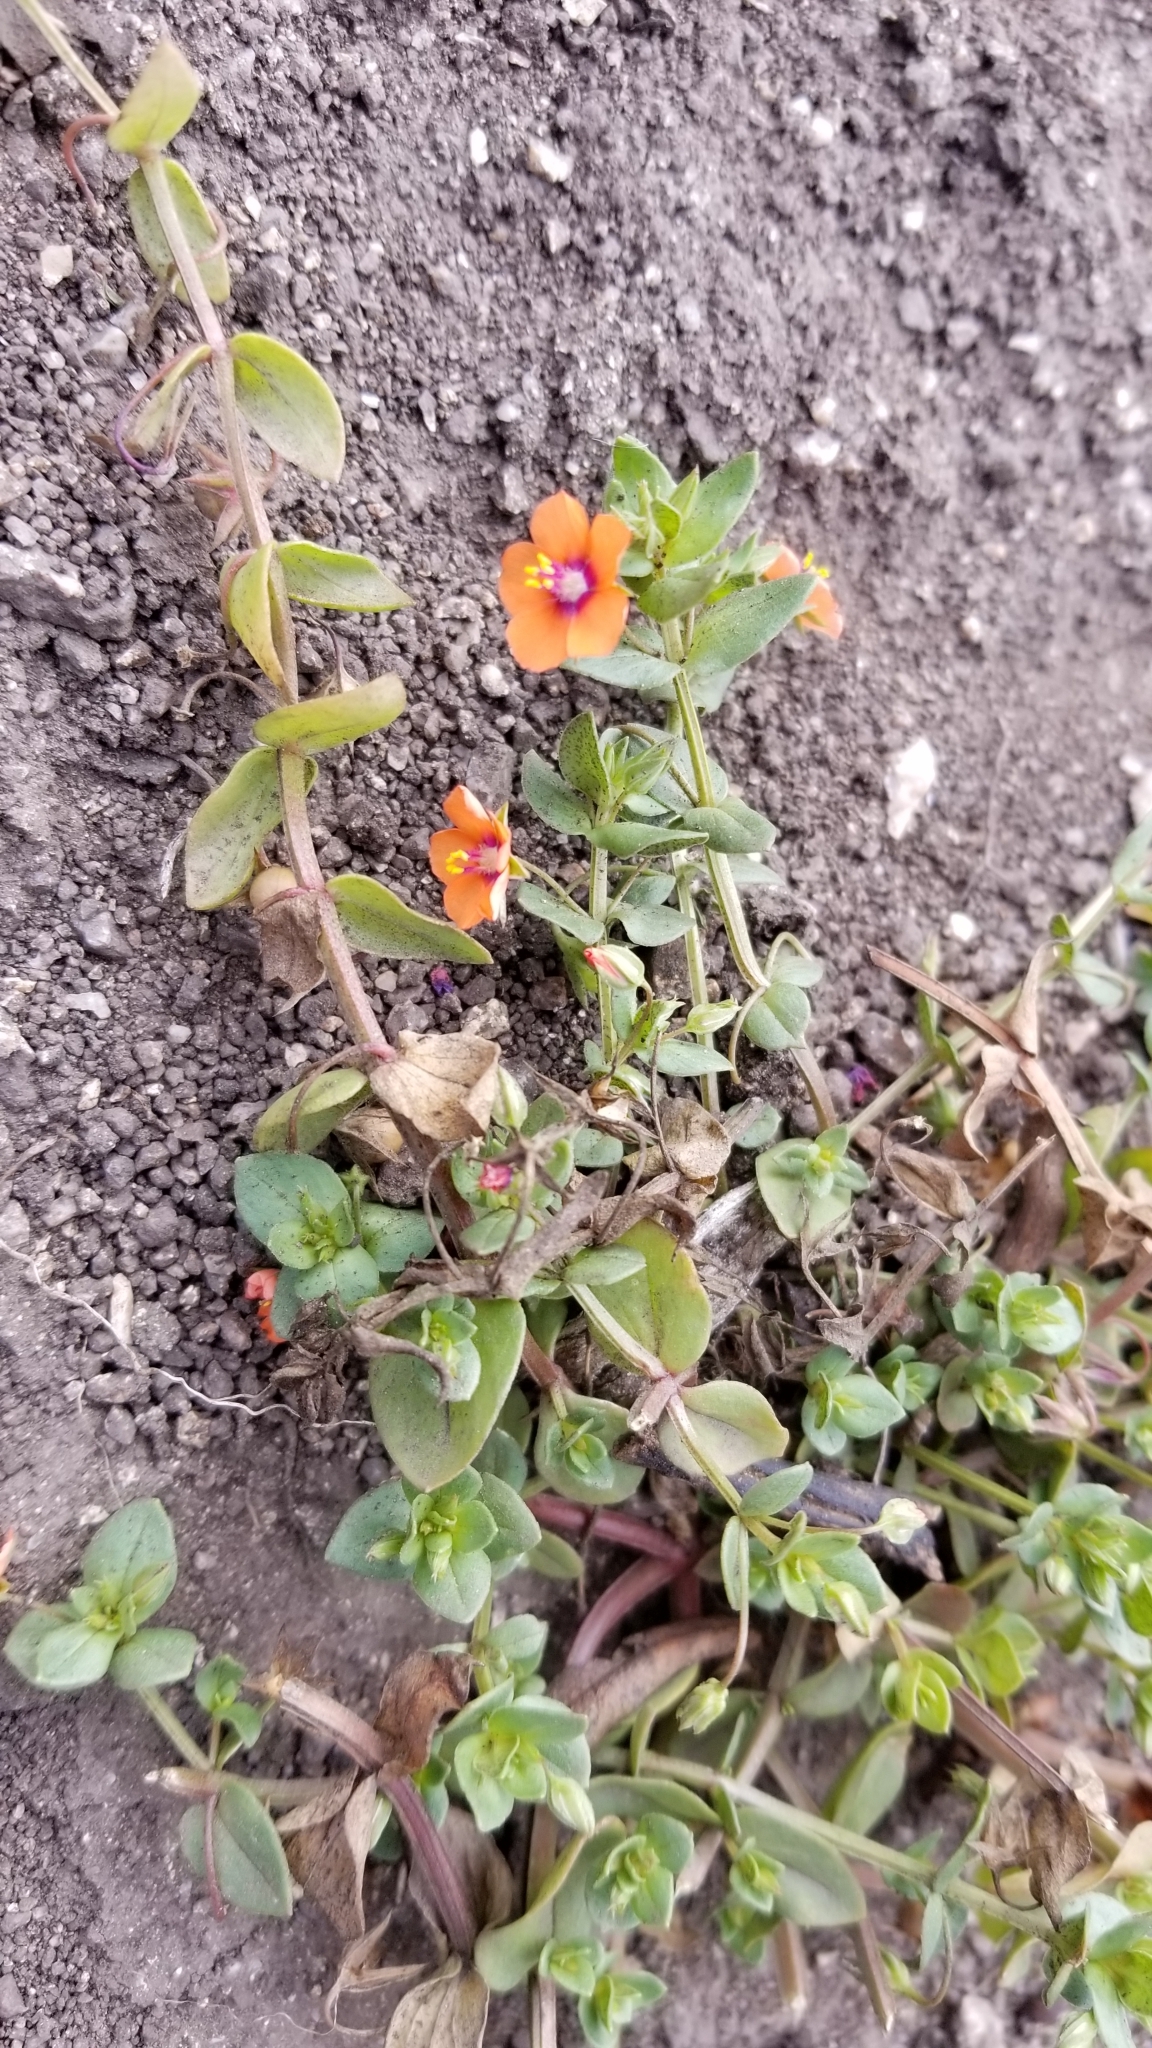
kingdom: Plantae
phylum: Tracheophyta
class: Magnoliopsida
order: Ericales
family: Primulaceae
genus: Lysimachia
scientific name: Lysimachia arvensis
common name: Scarlet pimpernel
